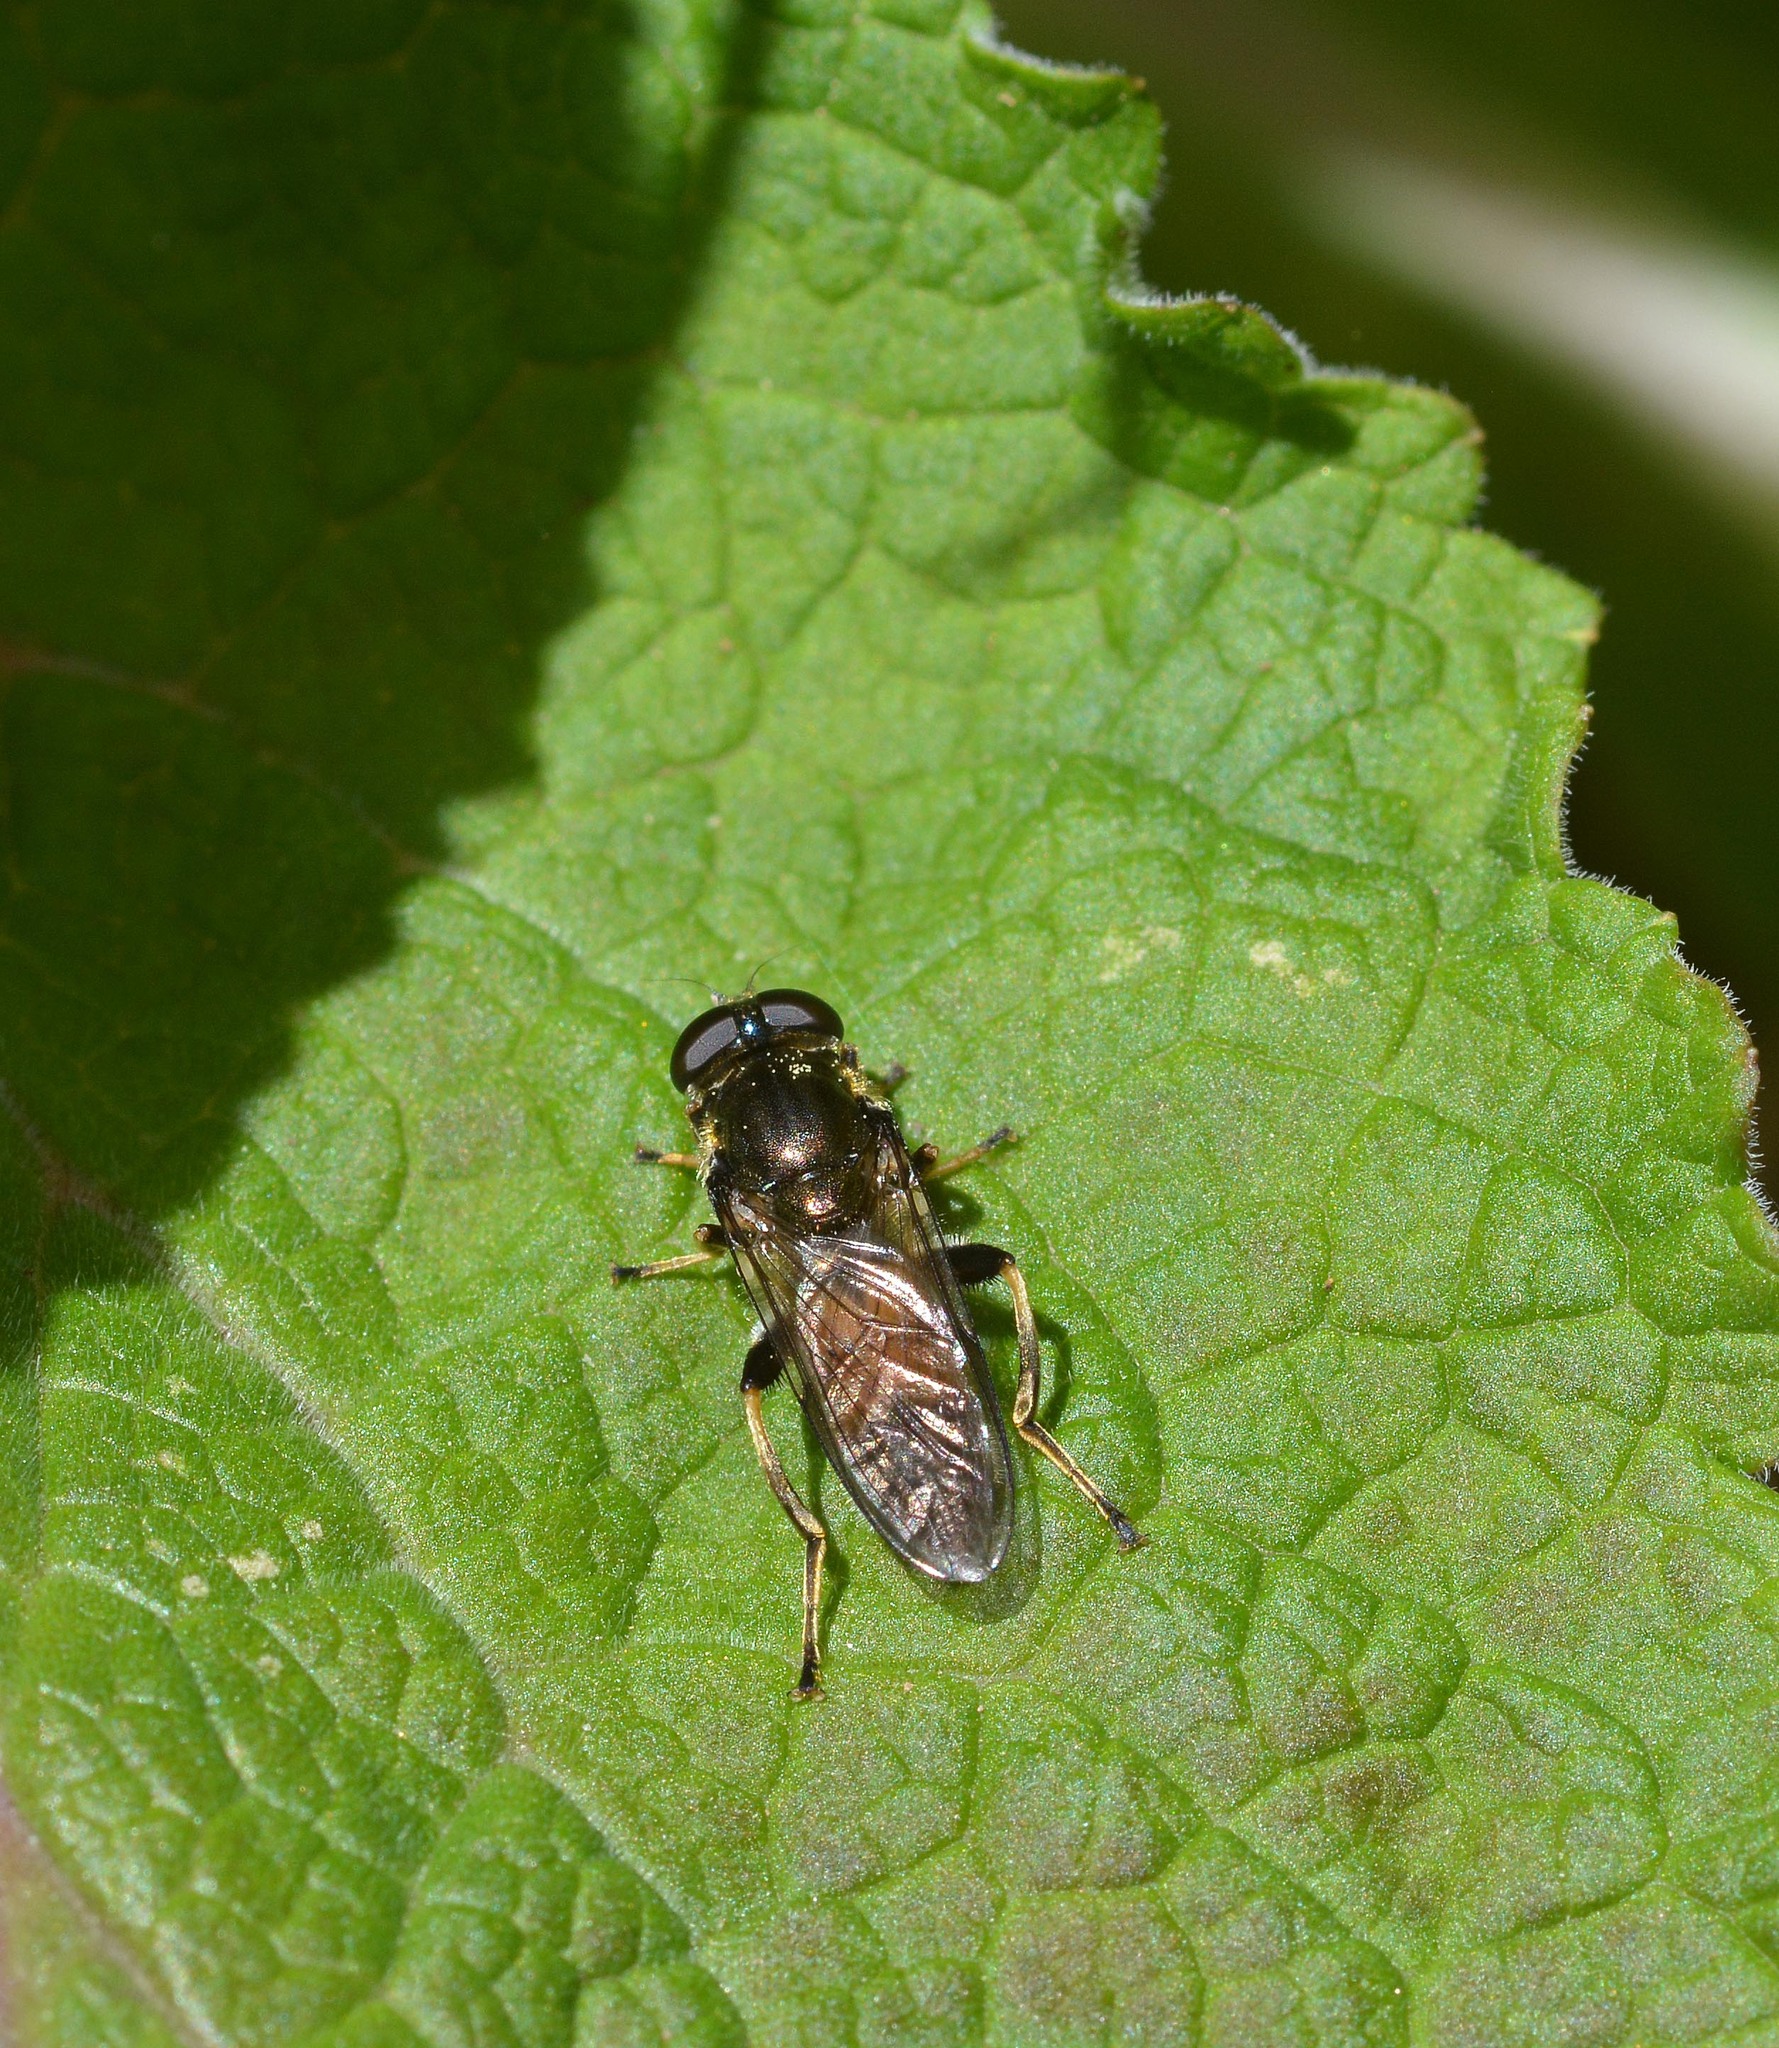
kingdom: Animalia
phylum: Arthropoda
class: Insecta
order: Diptera
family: Syrphidae
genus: Xylota
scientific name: Xylota segnis
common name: Brown-toed forest fly
